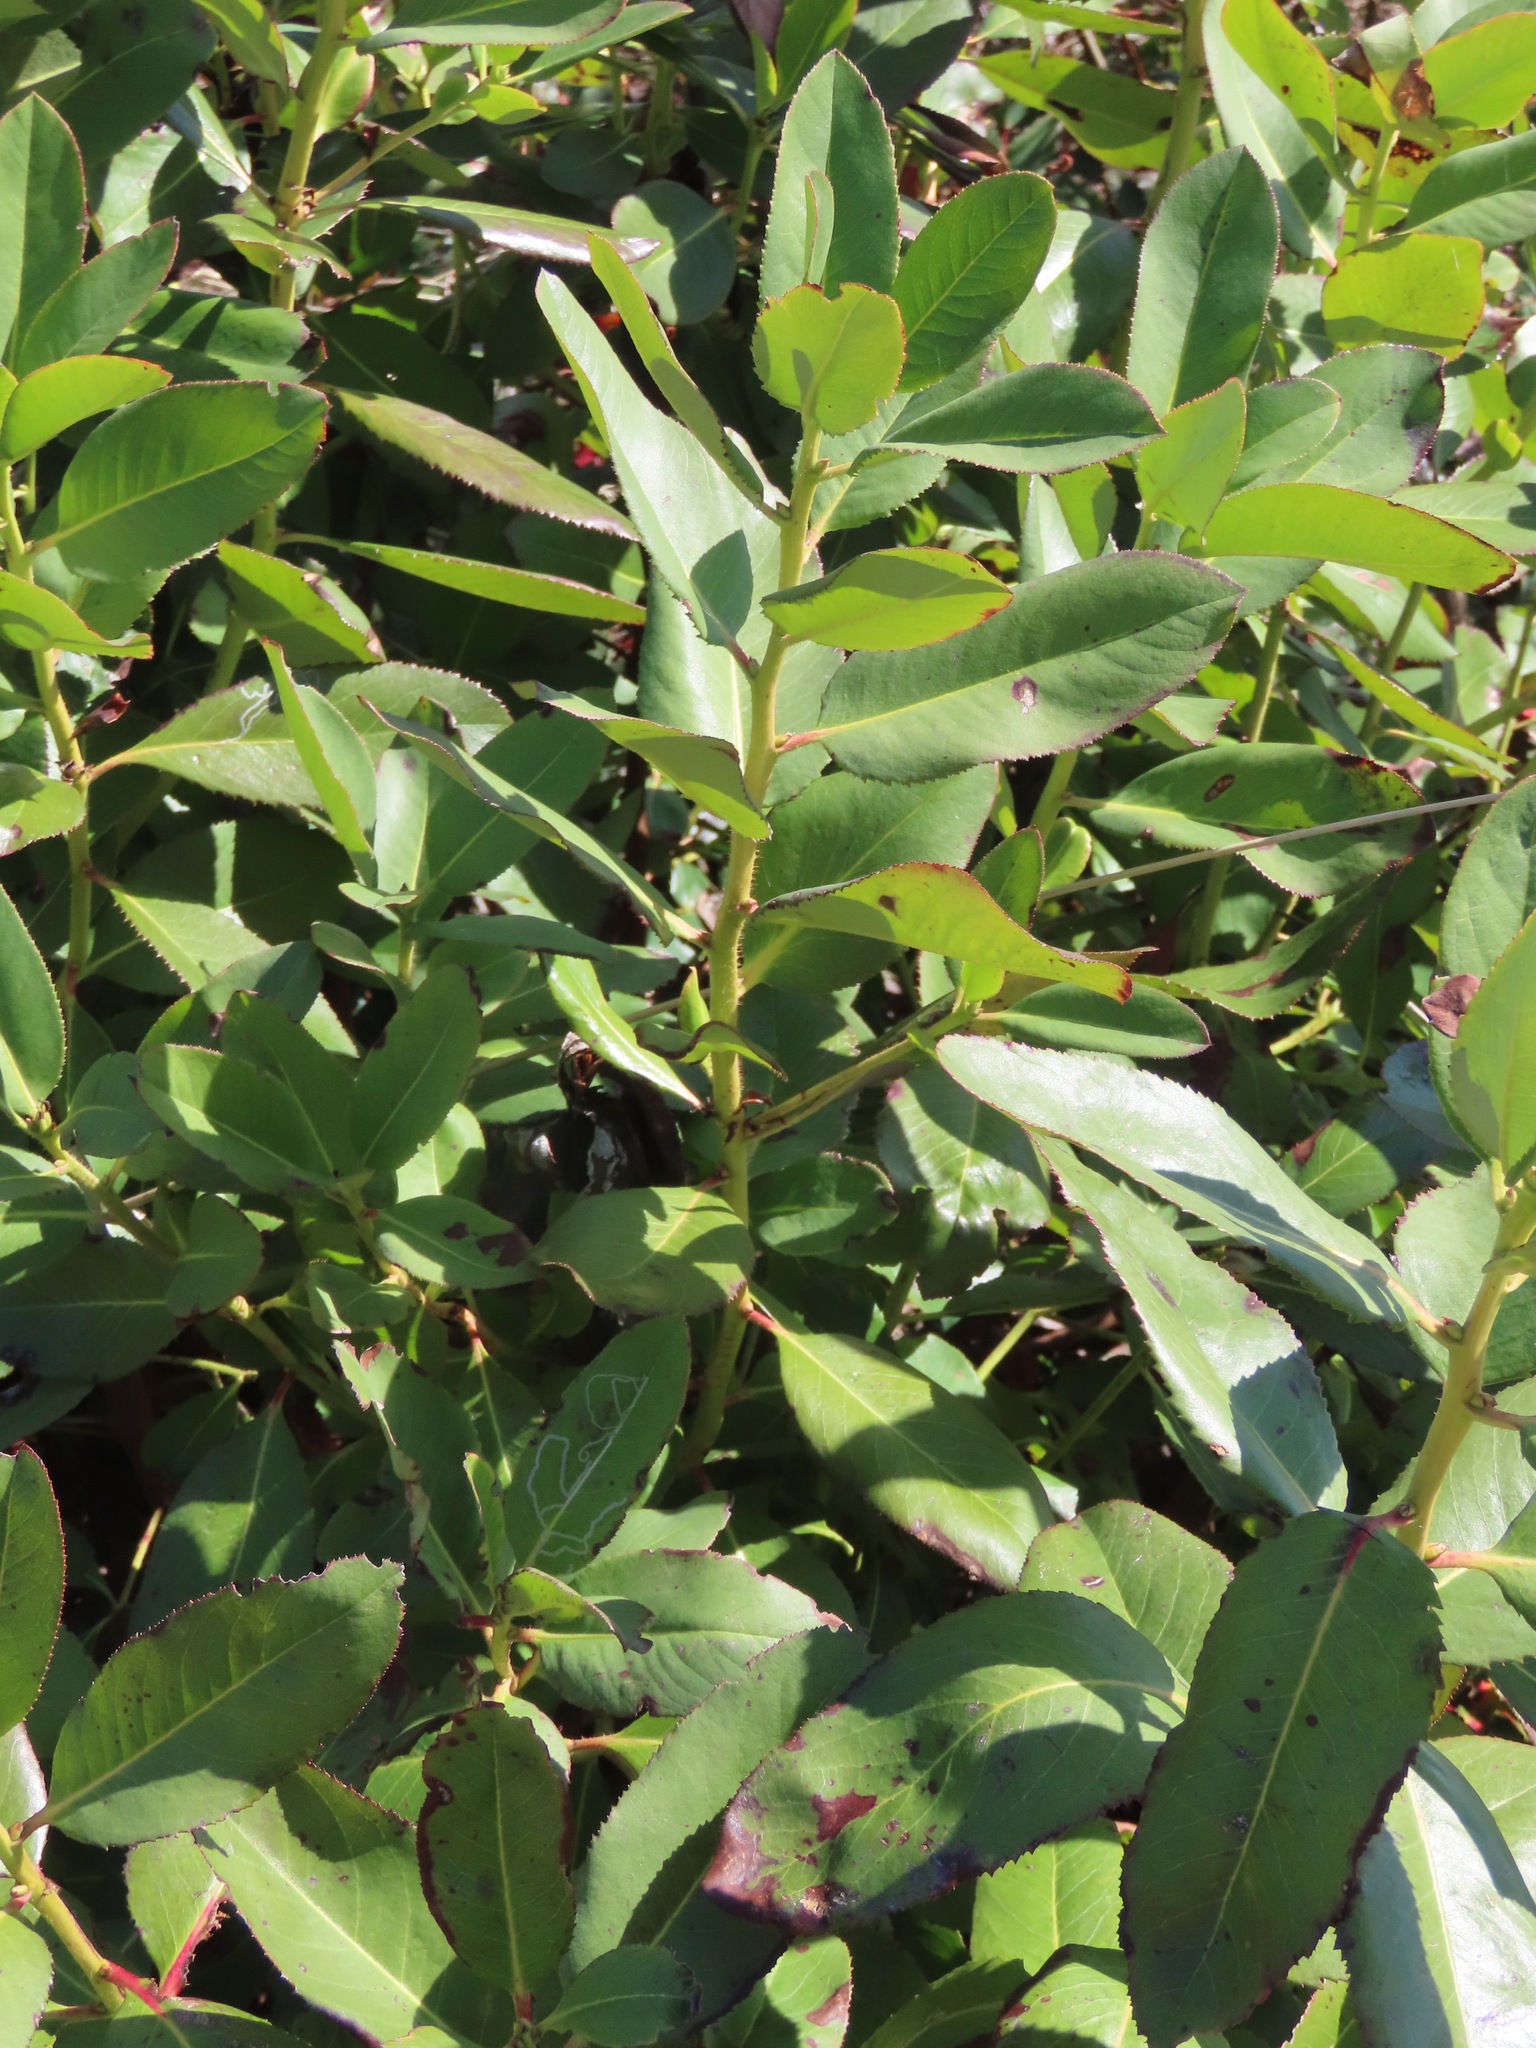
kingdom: Plantae
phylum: Tracheophyta
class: Magnoliopsida
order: Ericales
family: Ericaceae
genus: Arbutus
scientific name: Arbutus menziesii
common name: Pacific madrone
